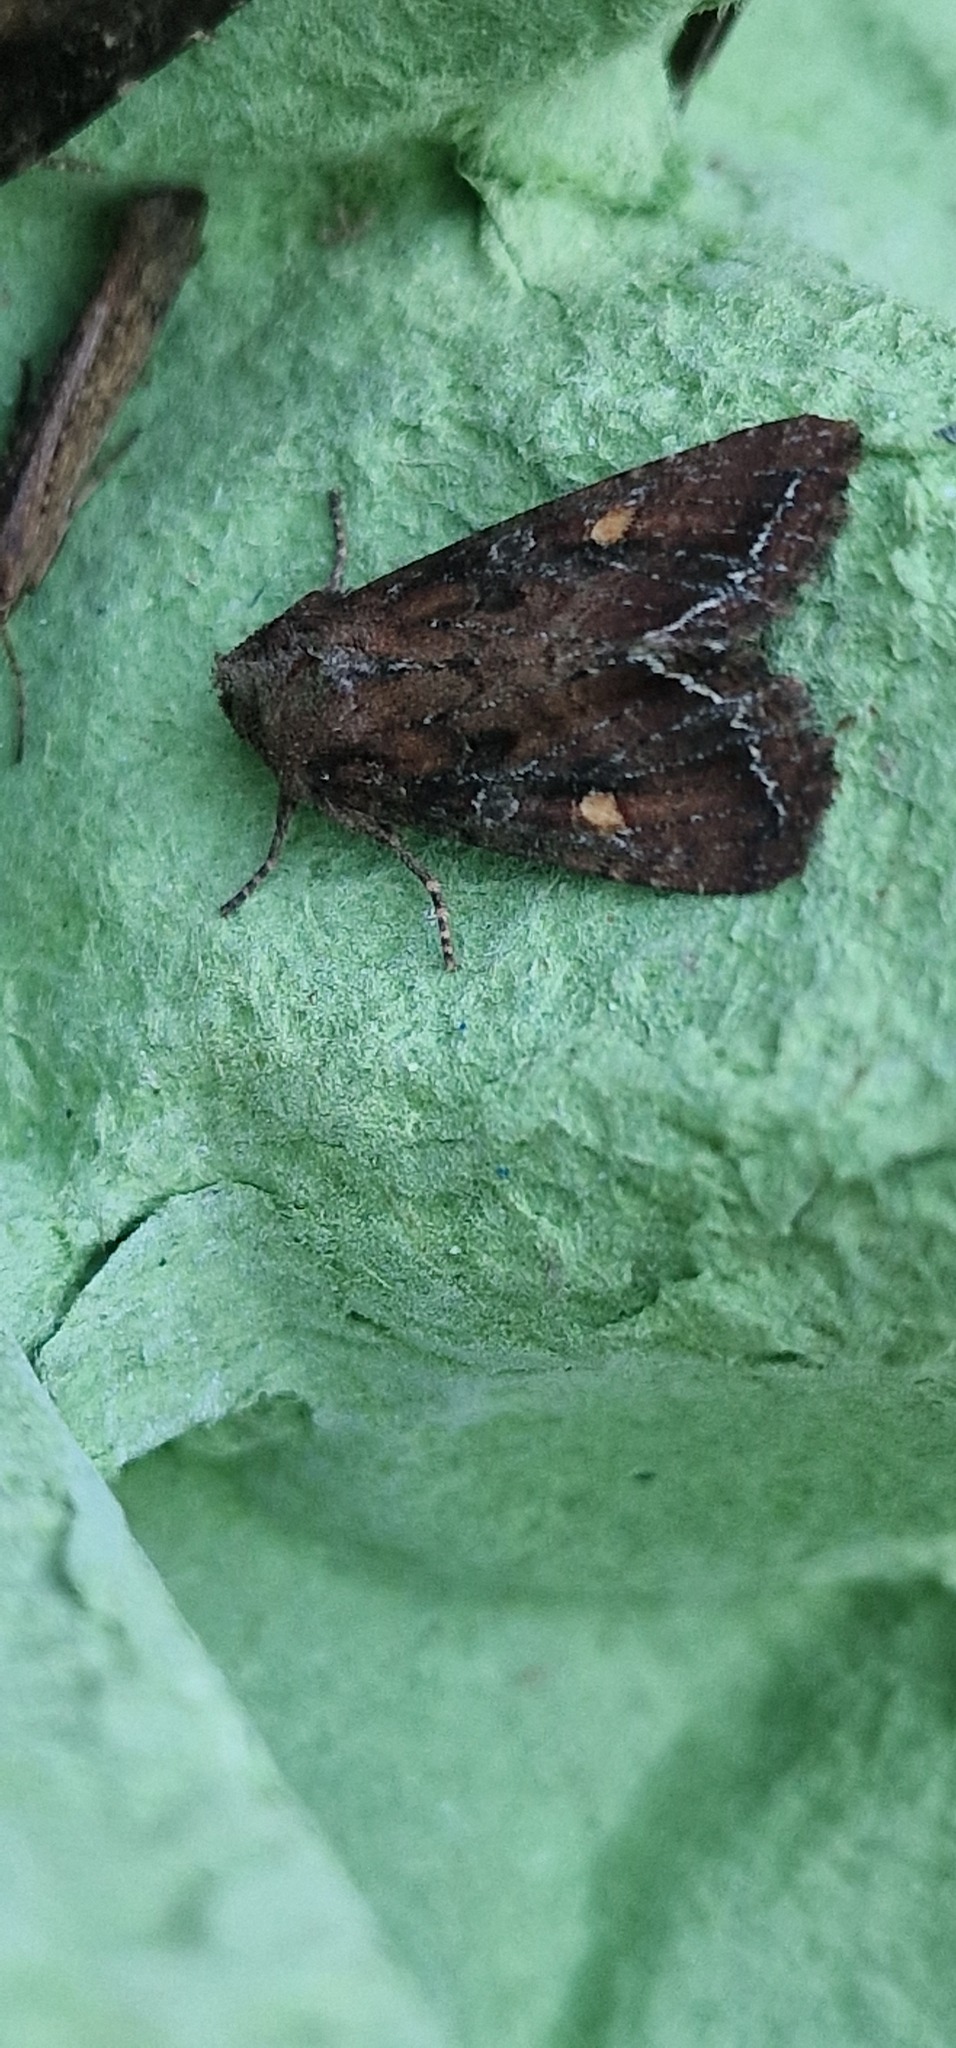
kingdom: Animalia
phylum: Arthropoda
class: Insecta
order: Lepidoptera
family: Noctuidae
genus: Lacanobia
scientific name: Lacanobia oleracea
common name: Bright-line brown-eye
